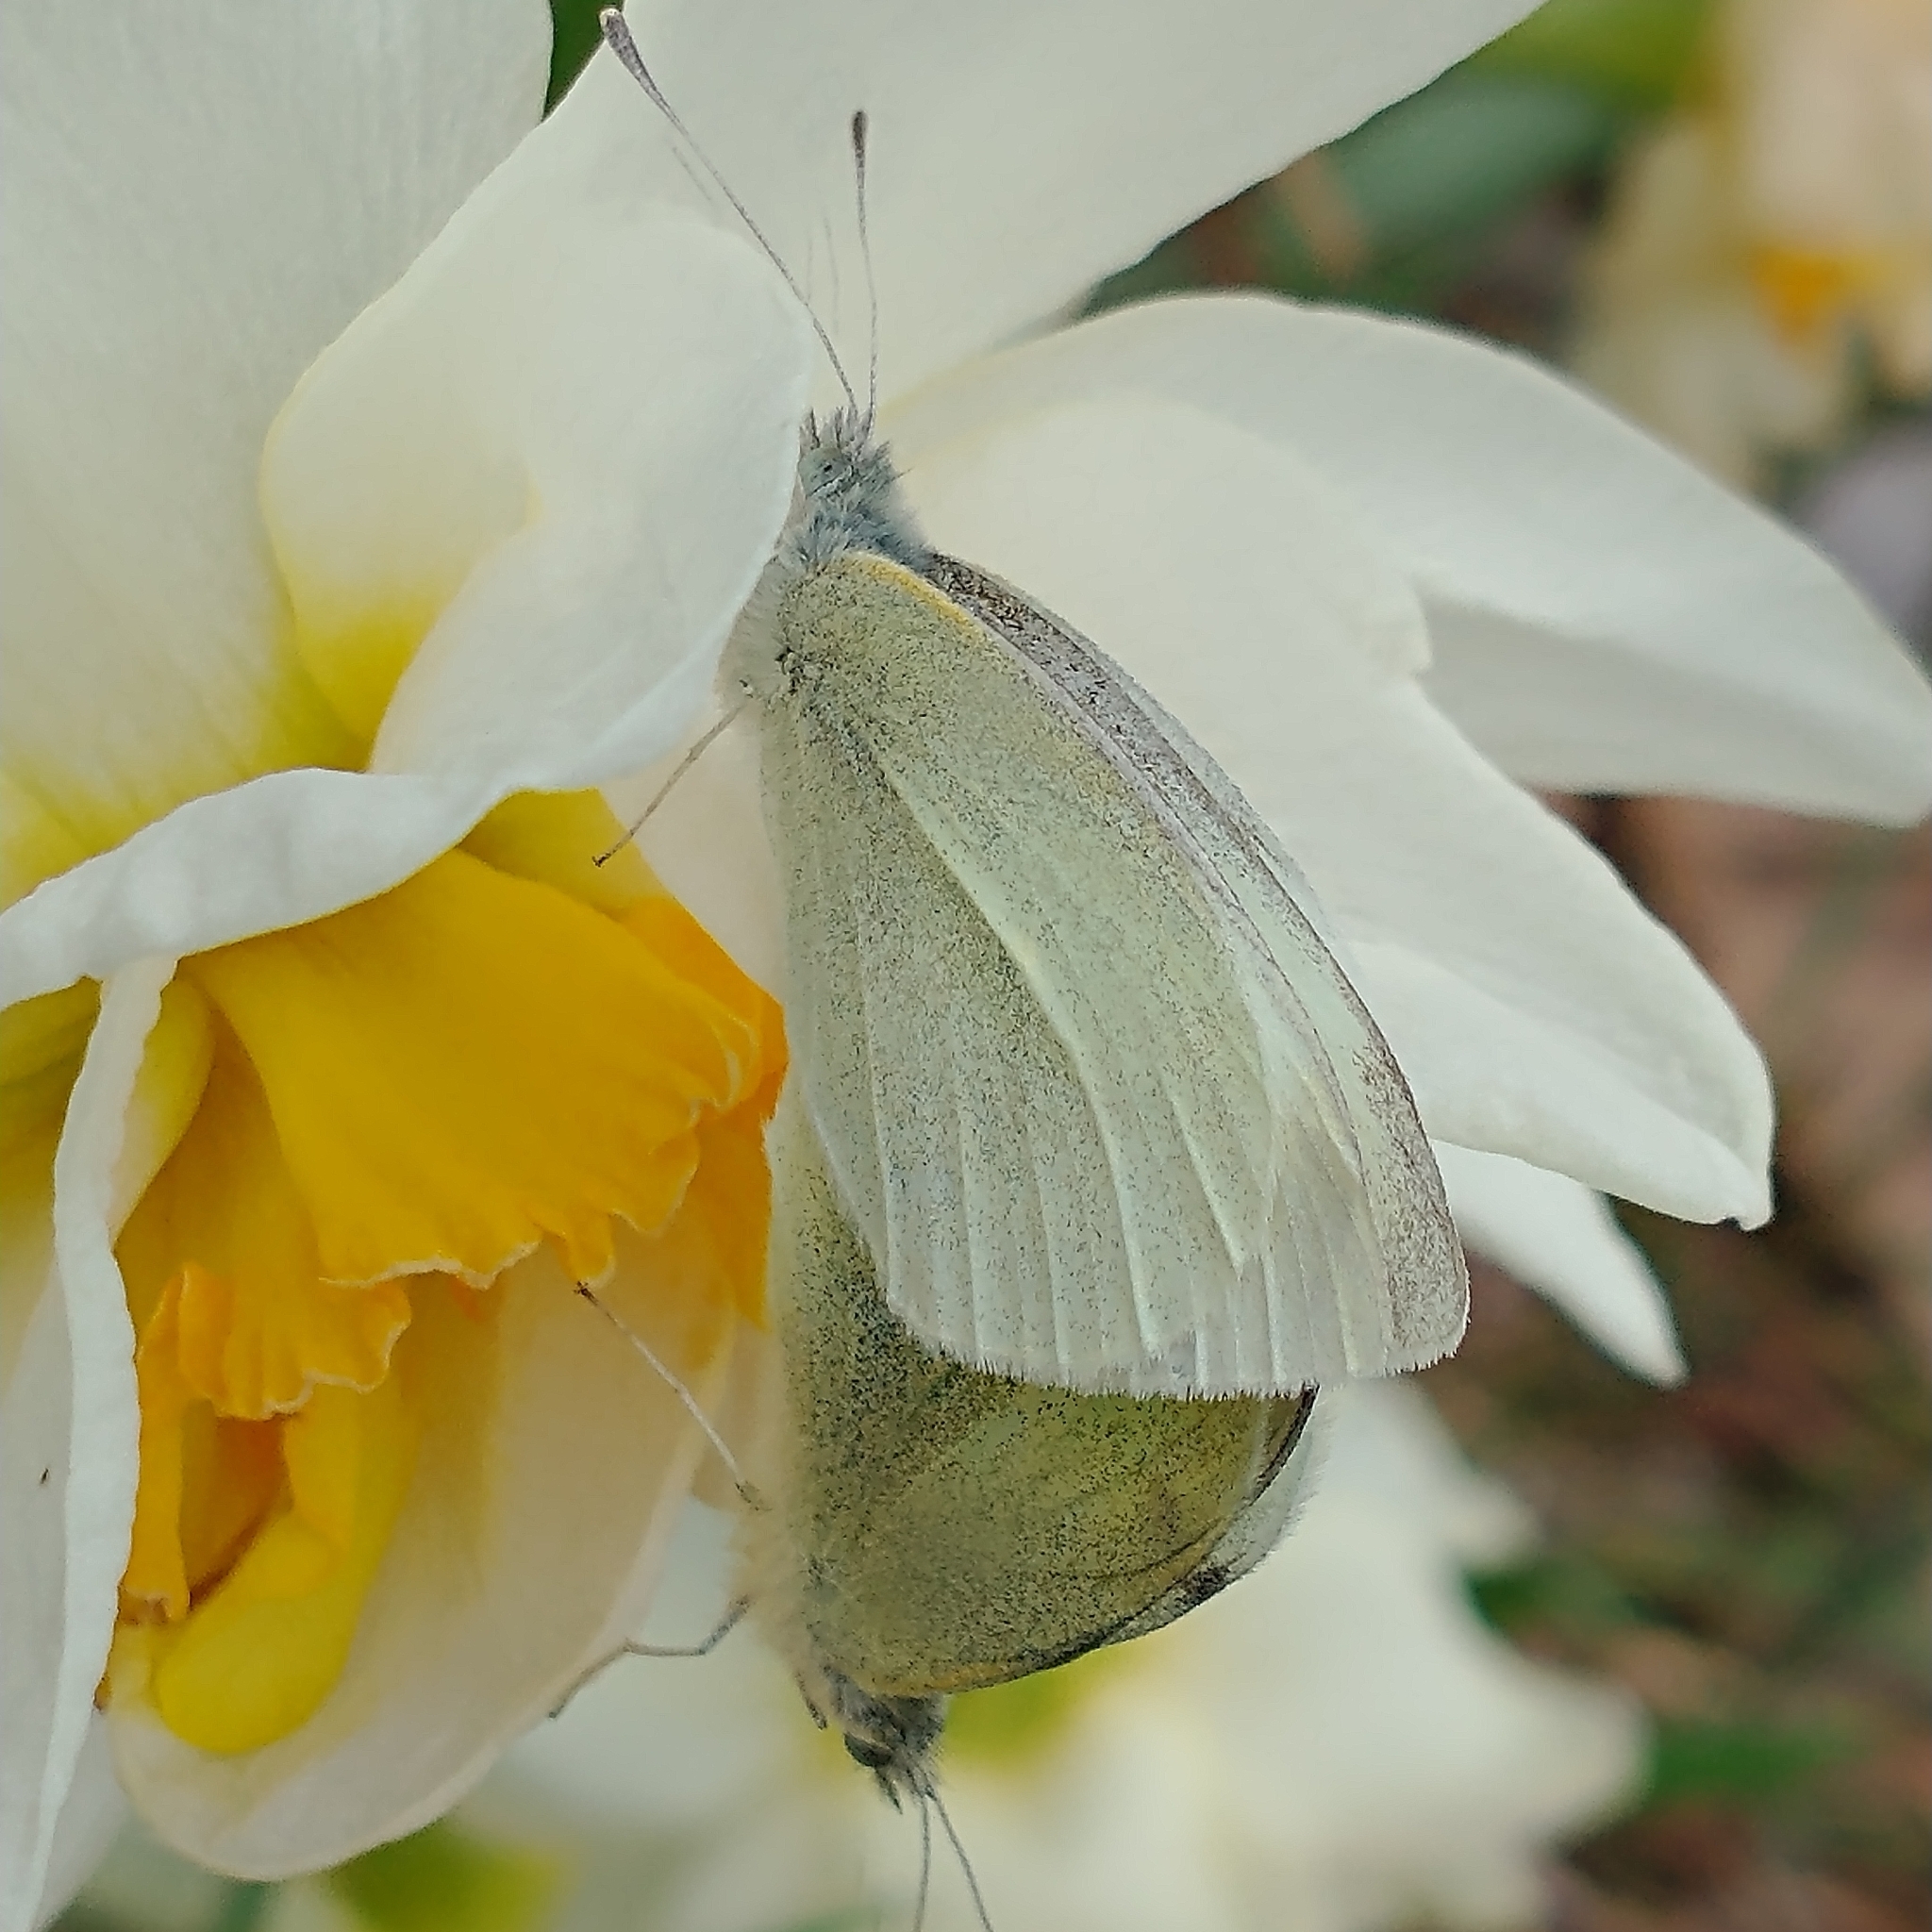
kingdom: Animalia
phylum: Arthropoda
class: Insecta
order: Lepidoptera
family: Pieridae
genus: Pieris
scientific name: Pieris rapae
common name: Small white
